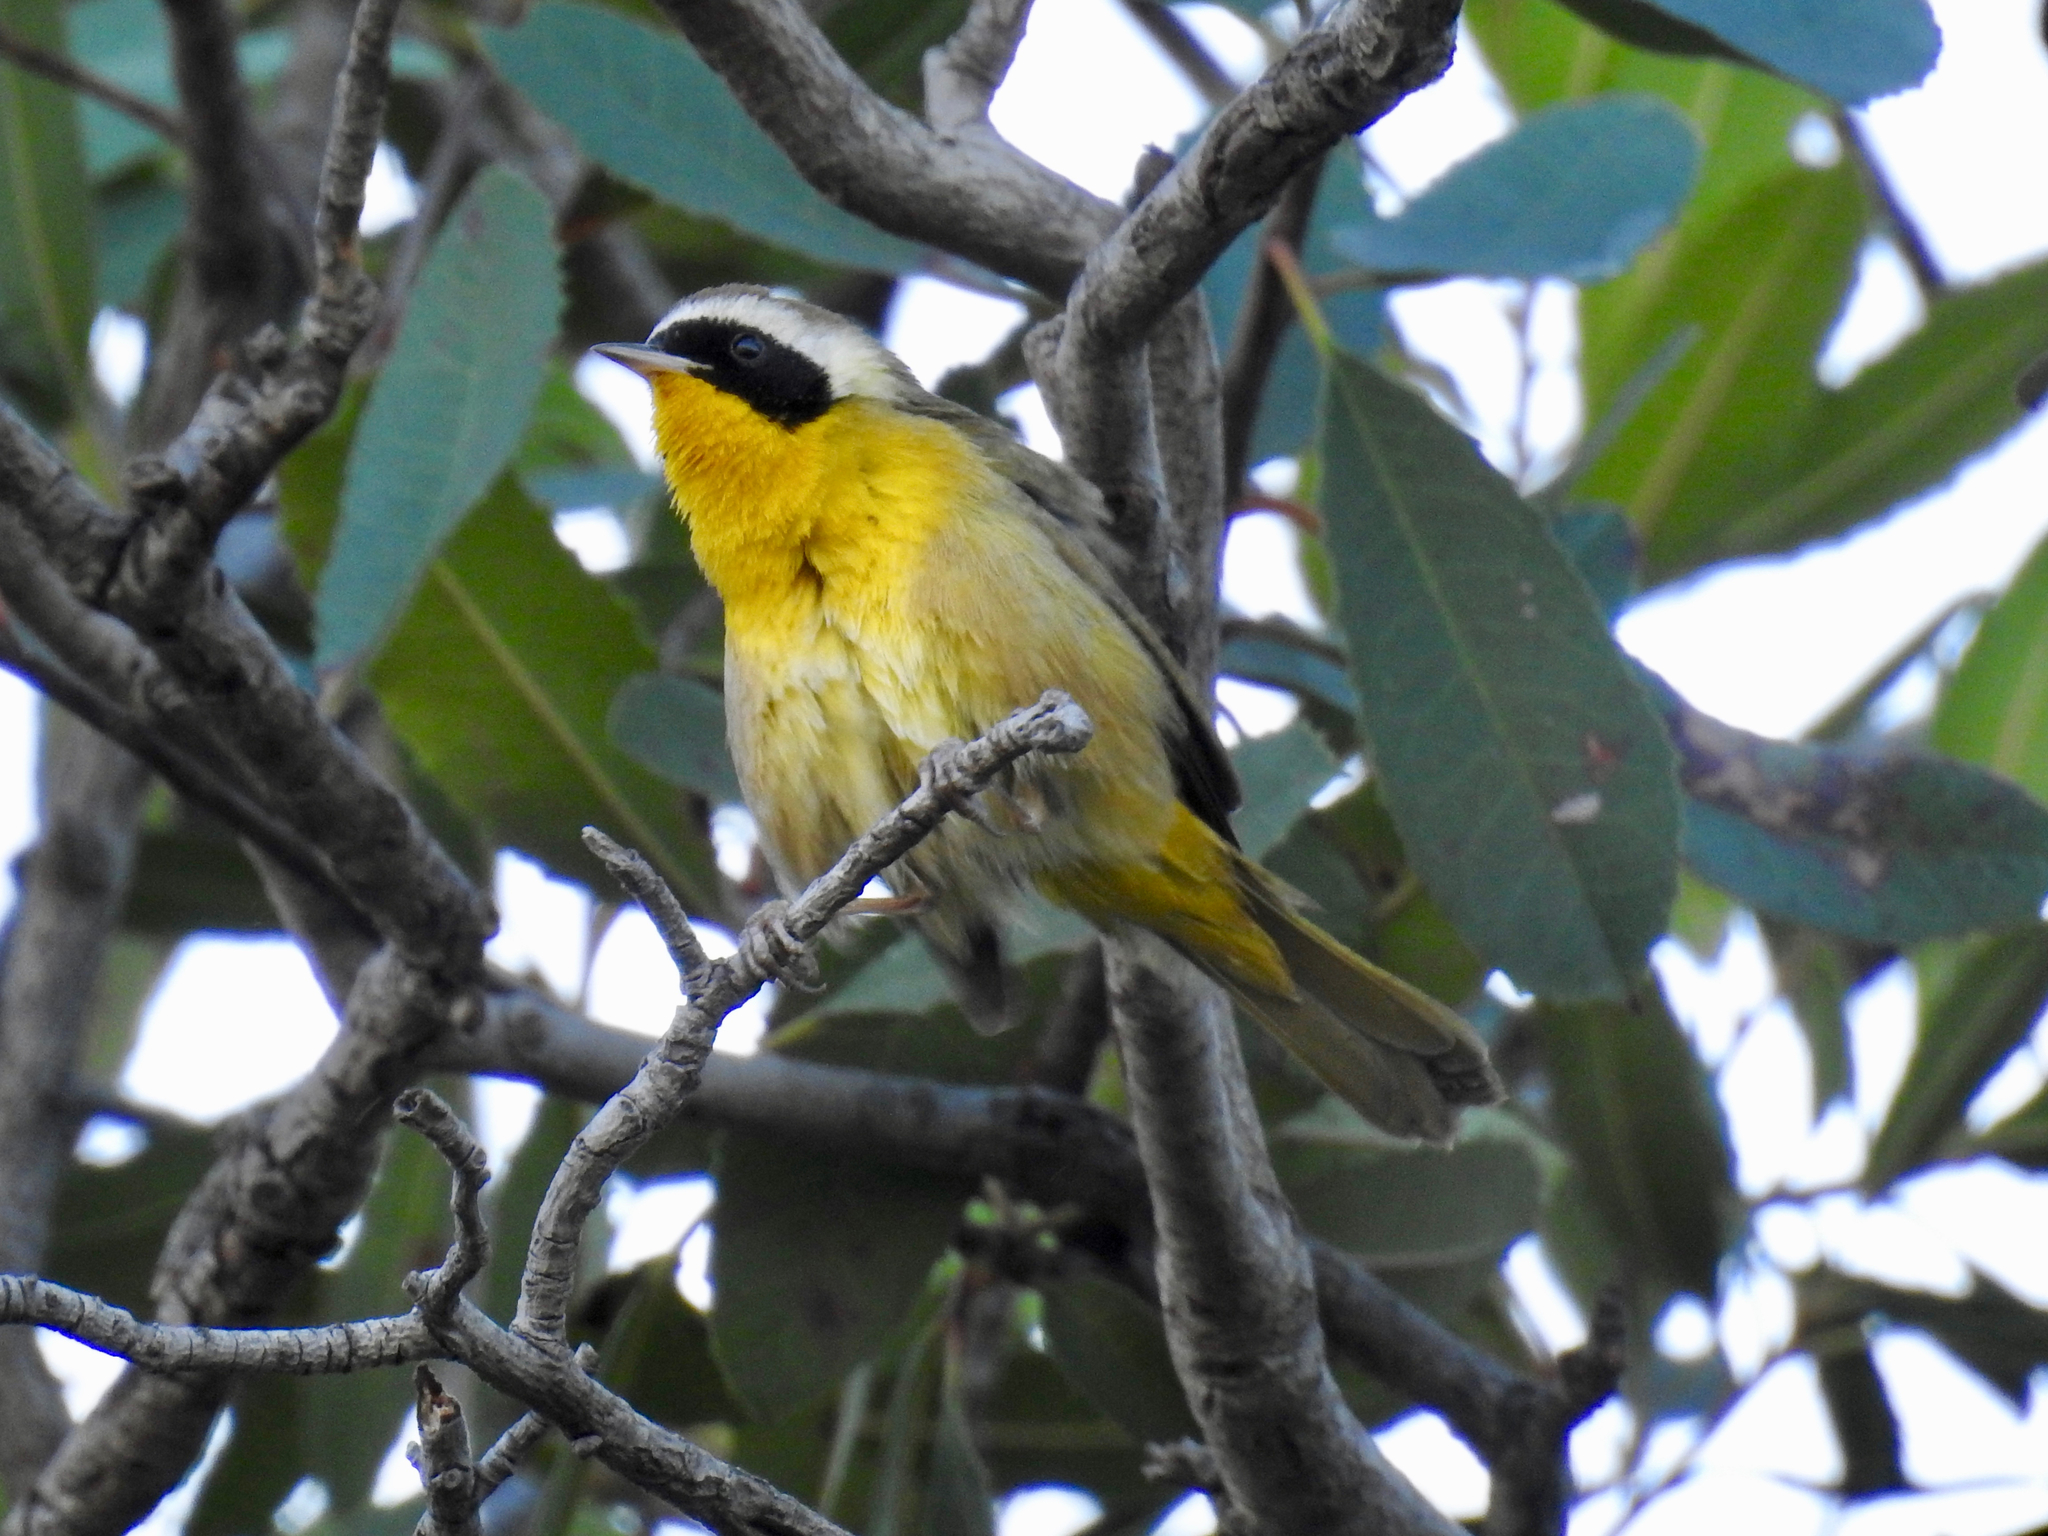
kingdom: Animalia
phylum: Chordata
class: Aves
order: Passeriformes
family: Parulidae
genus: Geothlypis
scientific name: Geothlypis trichas
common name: Common yellowthroat
